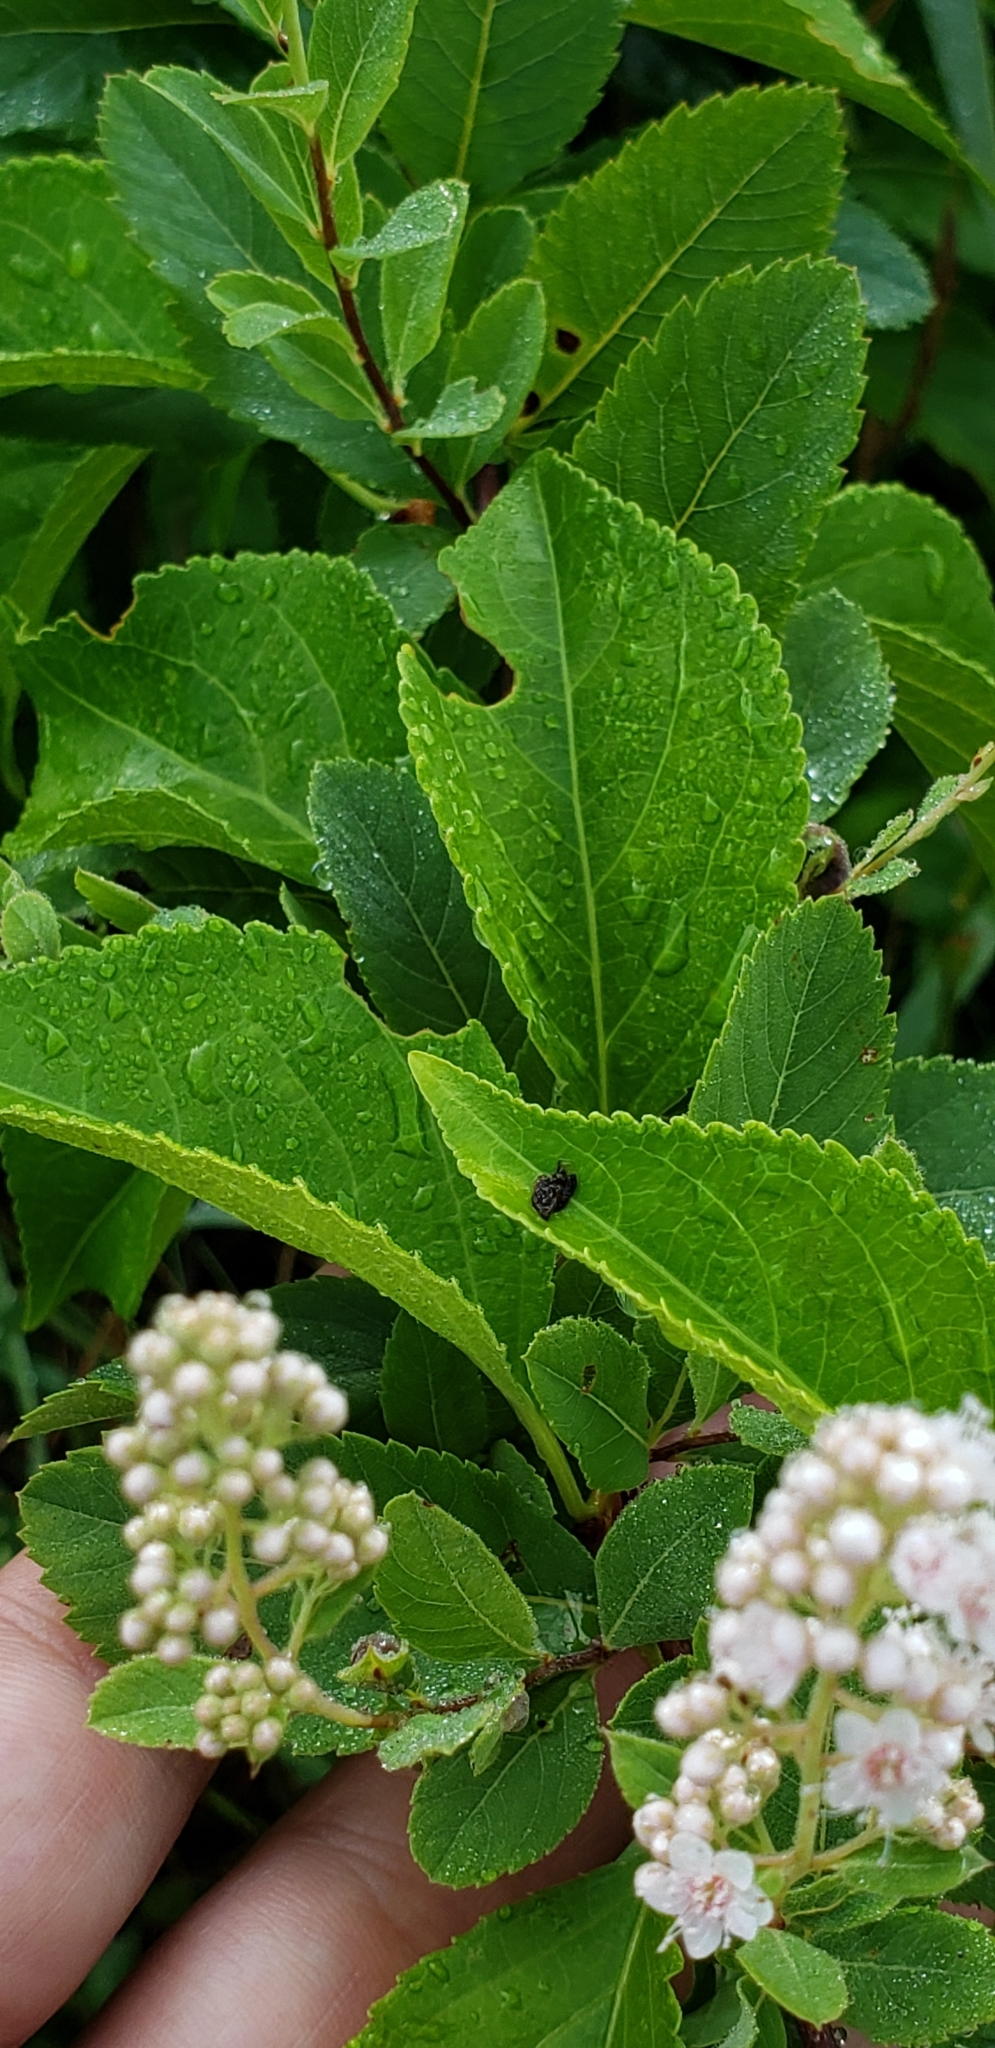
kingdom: Plantae
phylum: Tracheophyta
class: Magnoliopsida
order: Rosales
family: Rosaceae
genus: Spiraea
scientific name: Spiraea alba
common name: Pale bridewort
